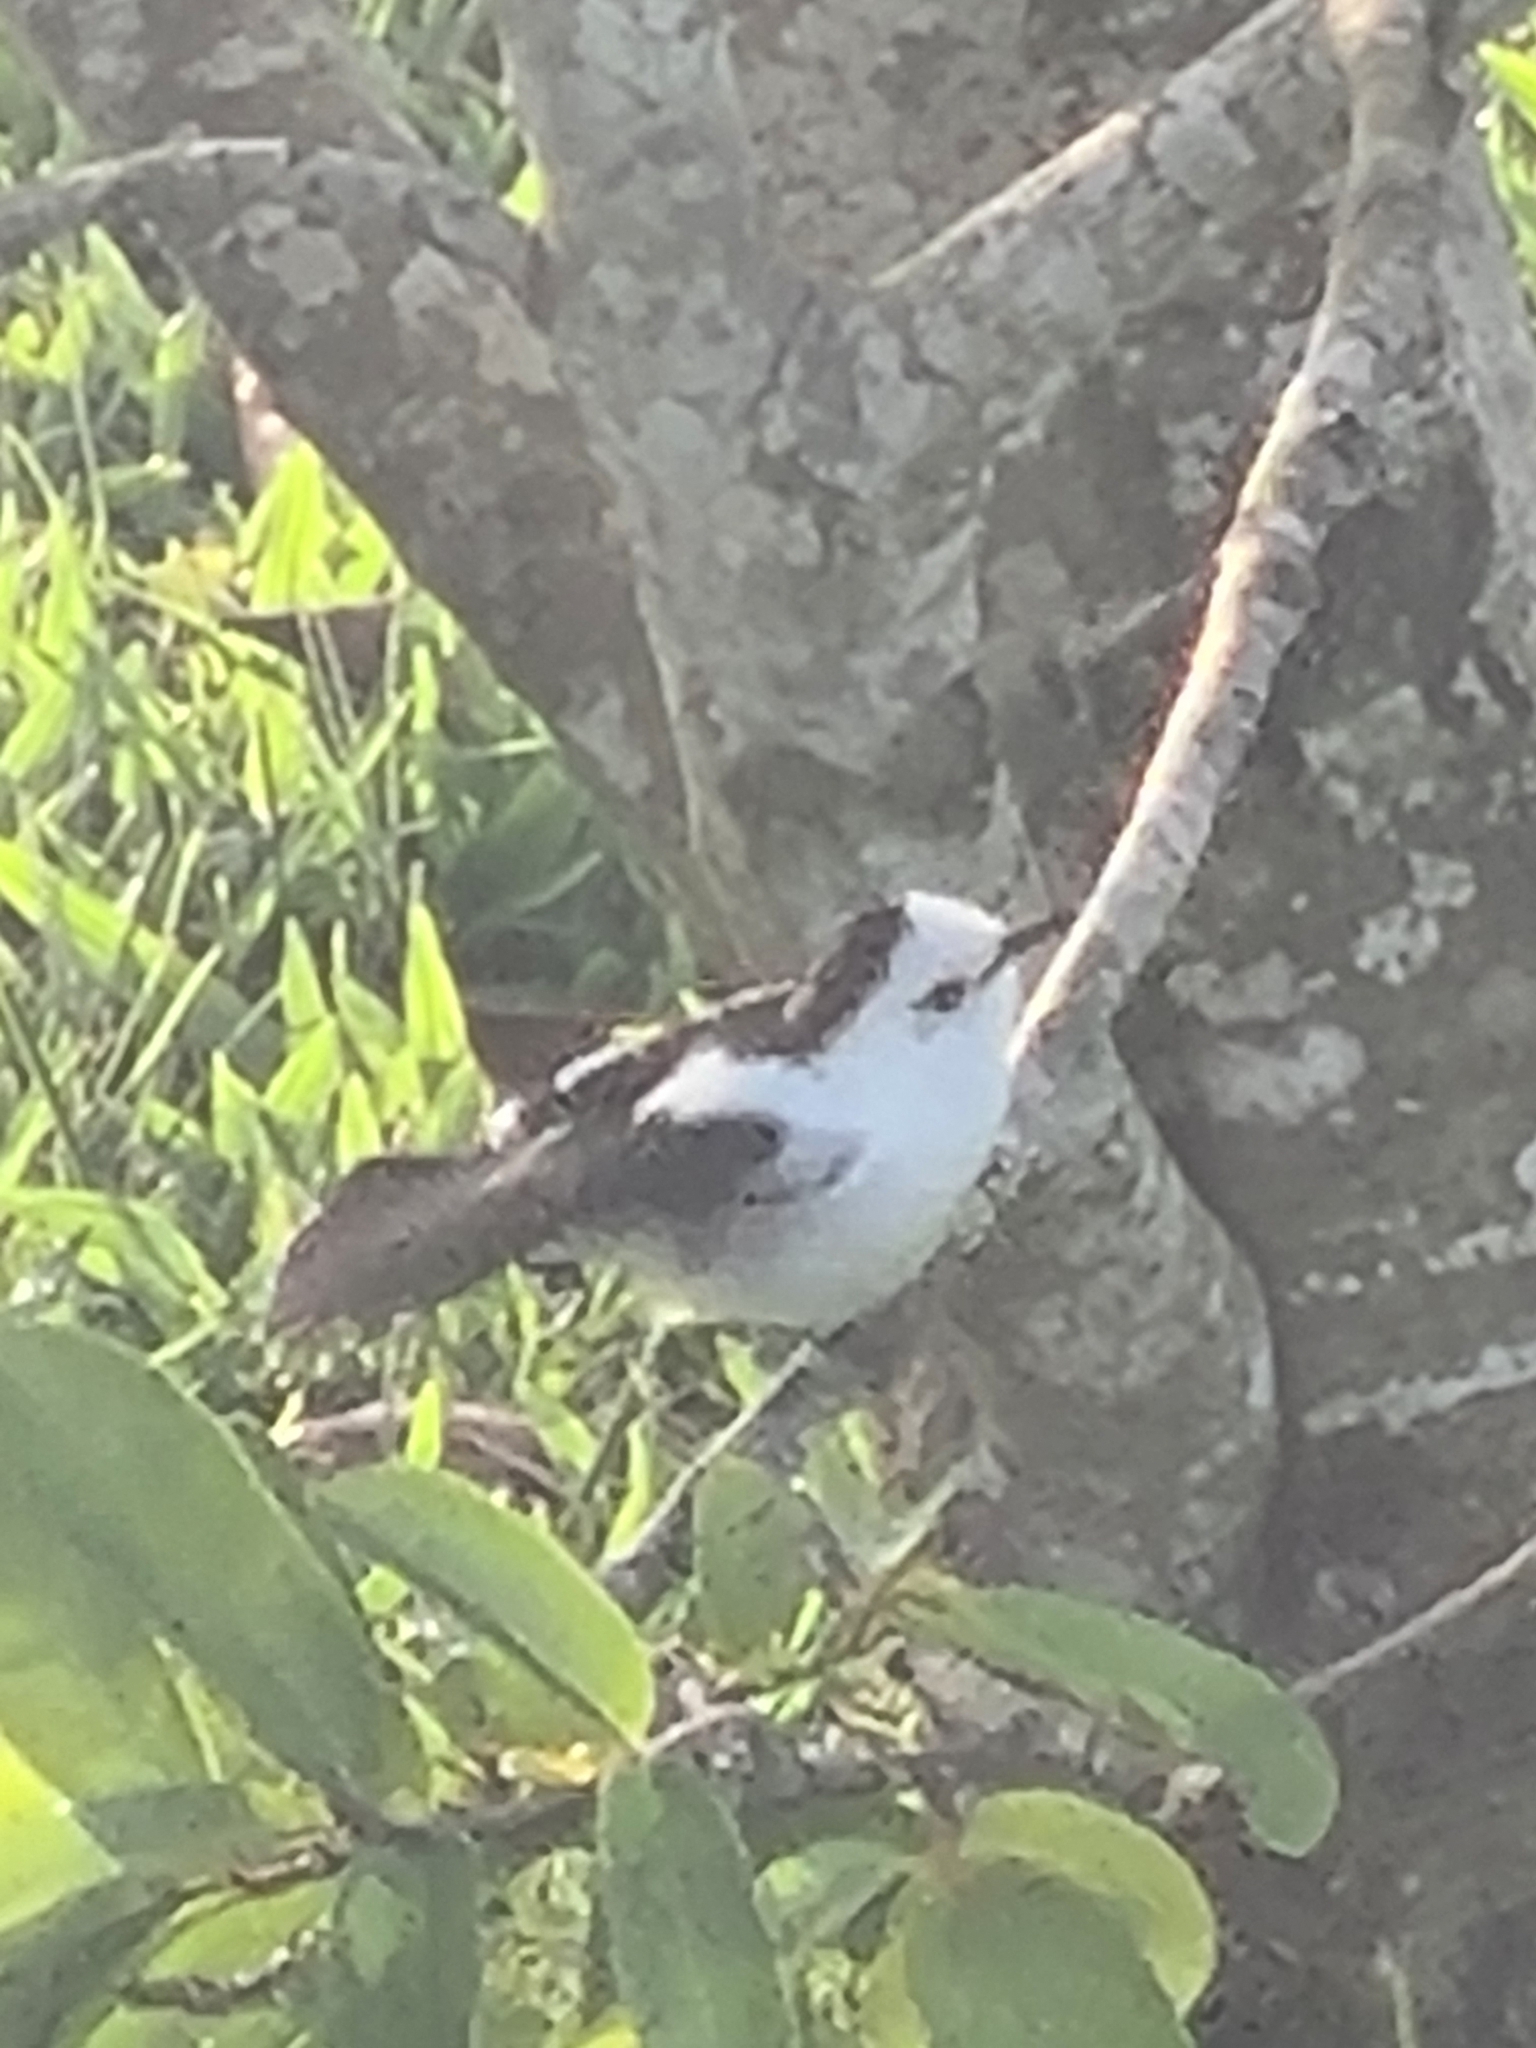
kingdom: Animalia
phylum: Chordata
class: Aves
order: Passeriformes
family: Tyrannidae
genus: Fluvicola
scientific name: Fluvicola pica
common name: Pied water-tyrant
